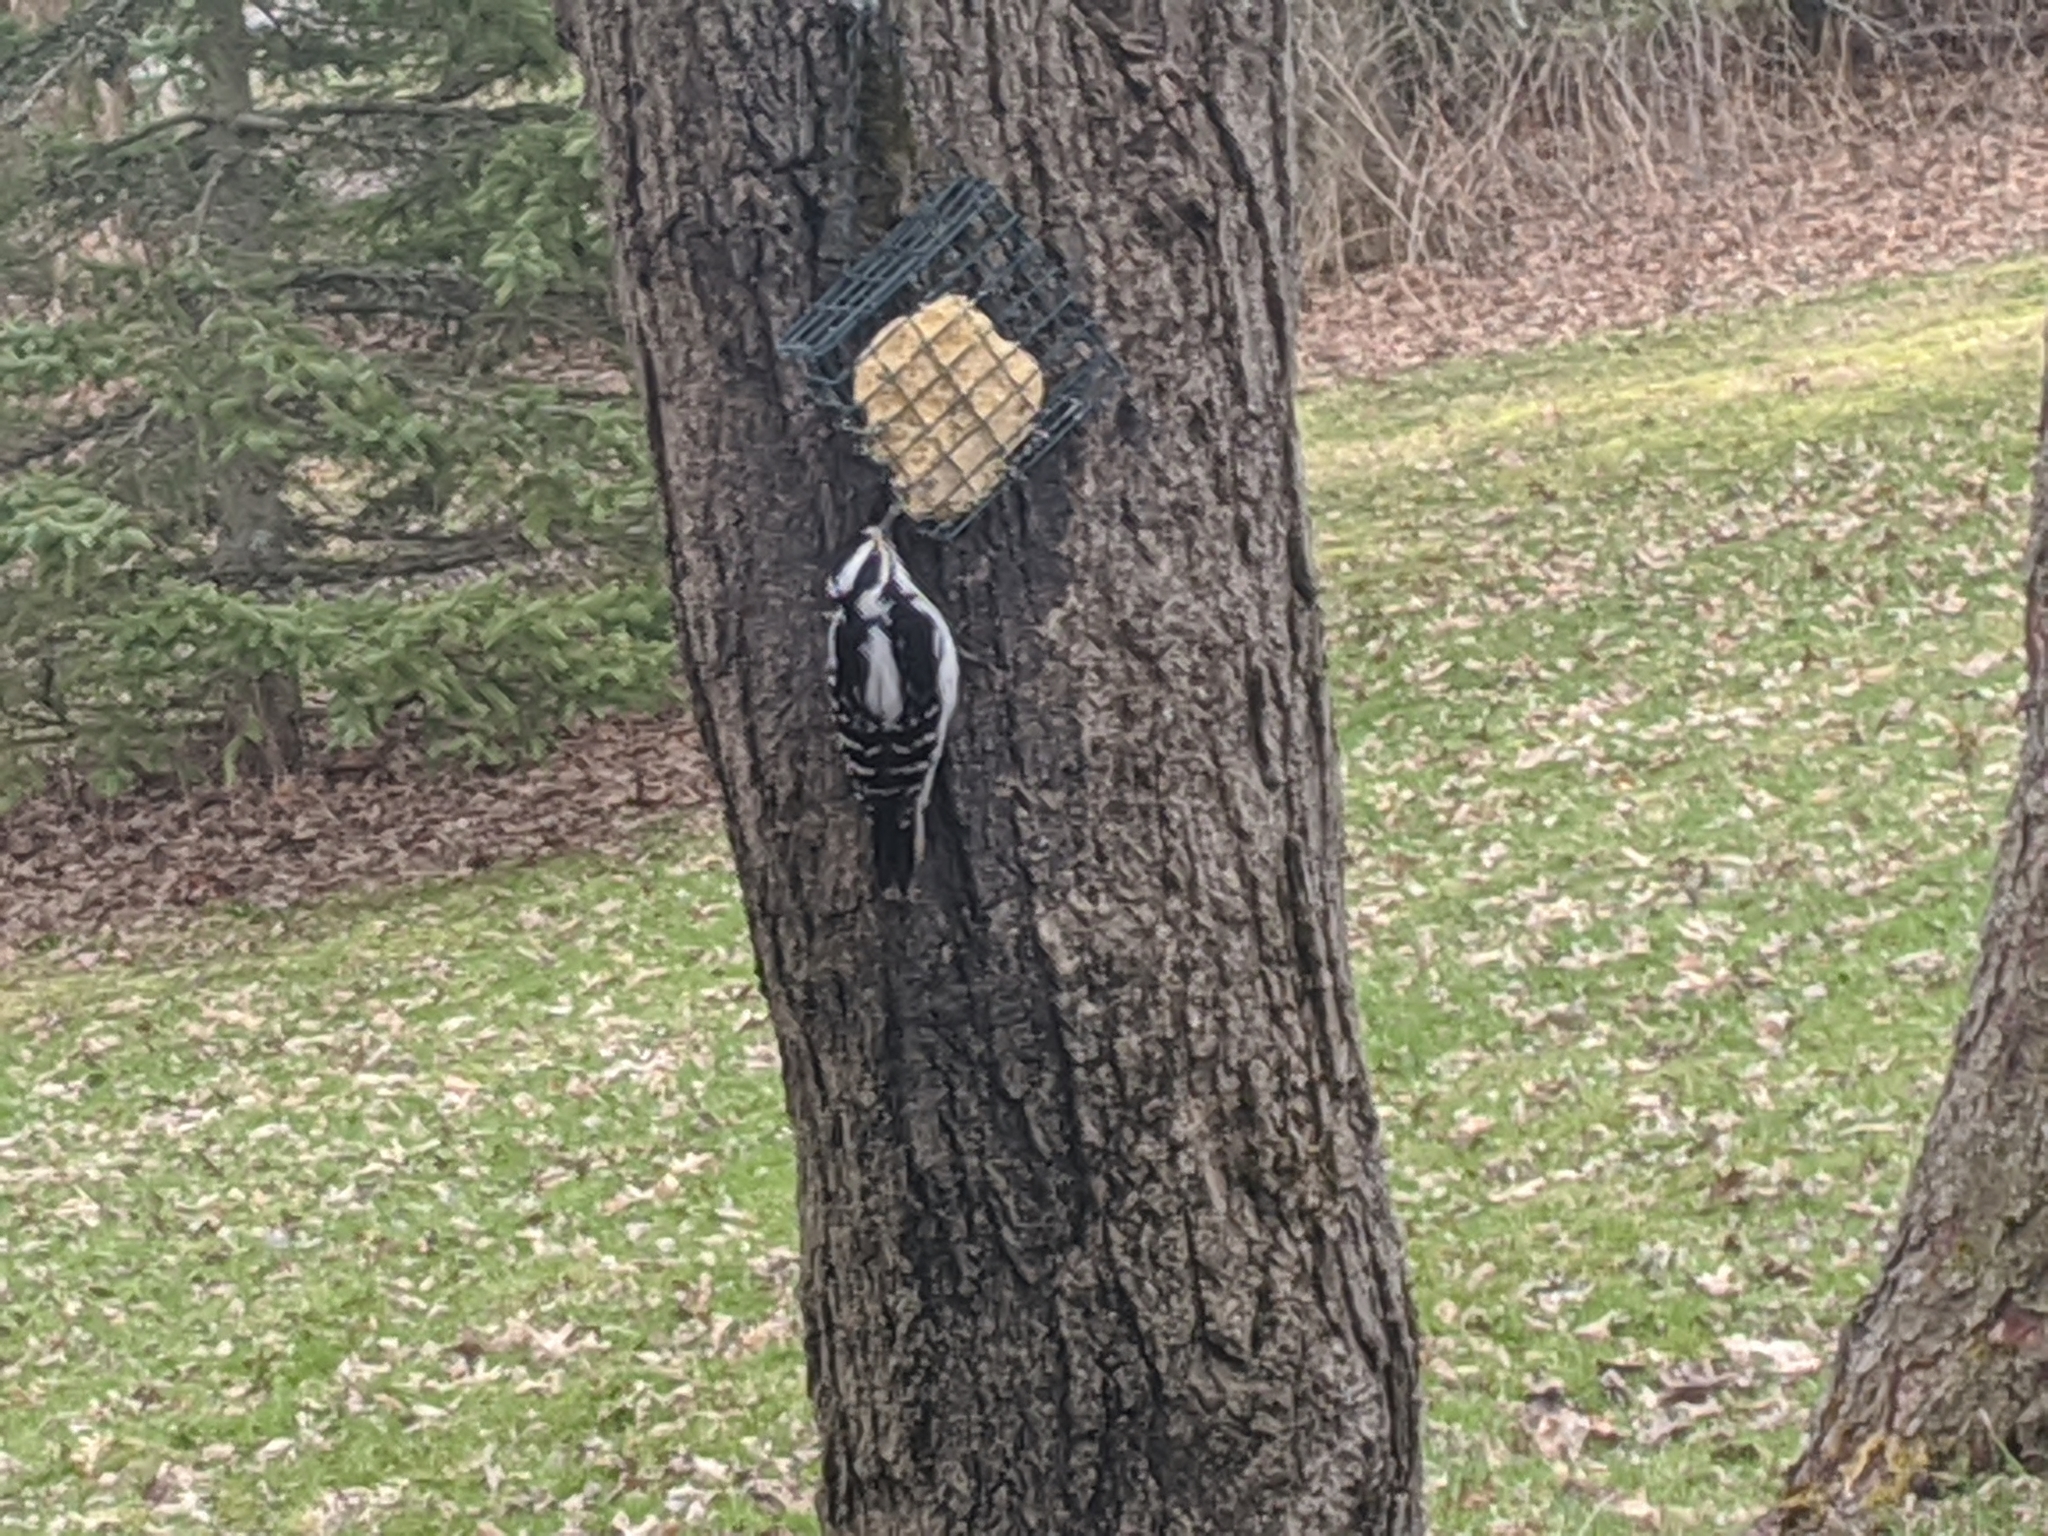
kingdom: Animalia
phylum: Chordata
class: Aves
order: Piciformes
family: Picidae
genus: Leuconotopicus
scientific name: Leuconotopicus villosus
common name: Hairy woodpecker
